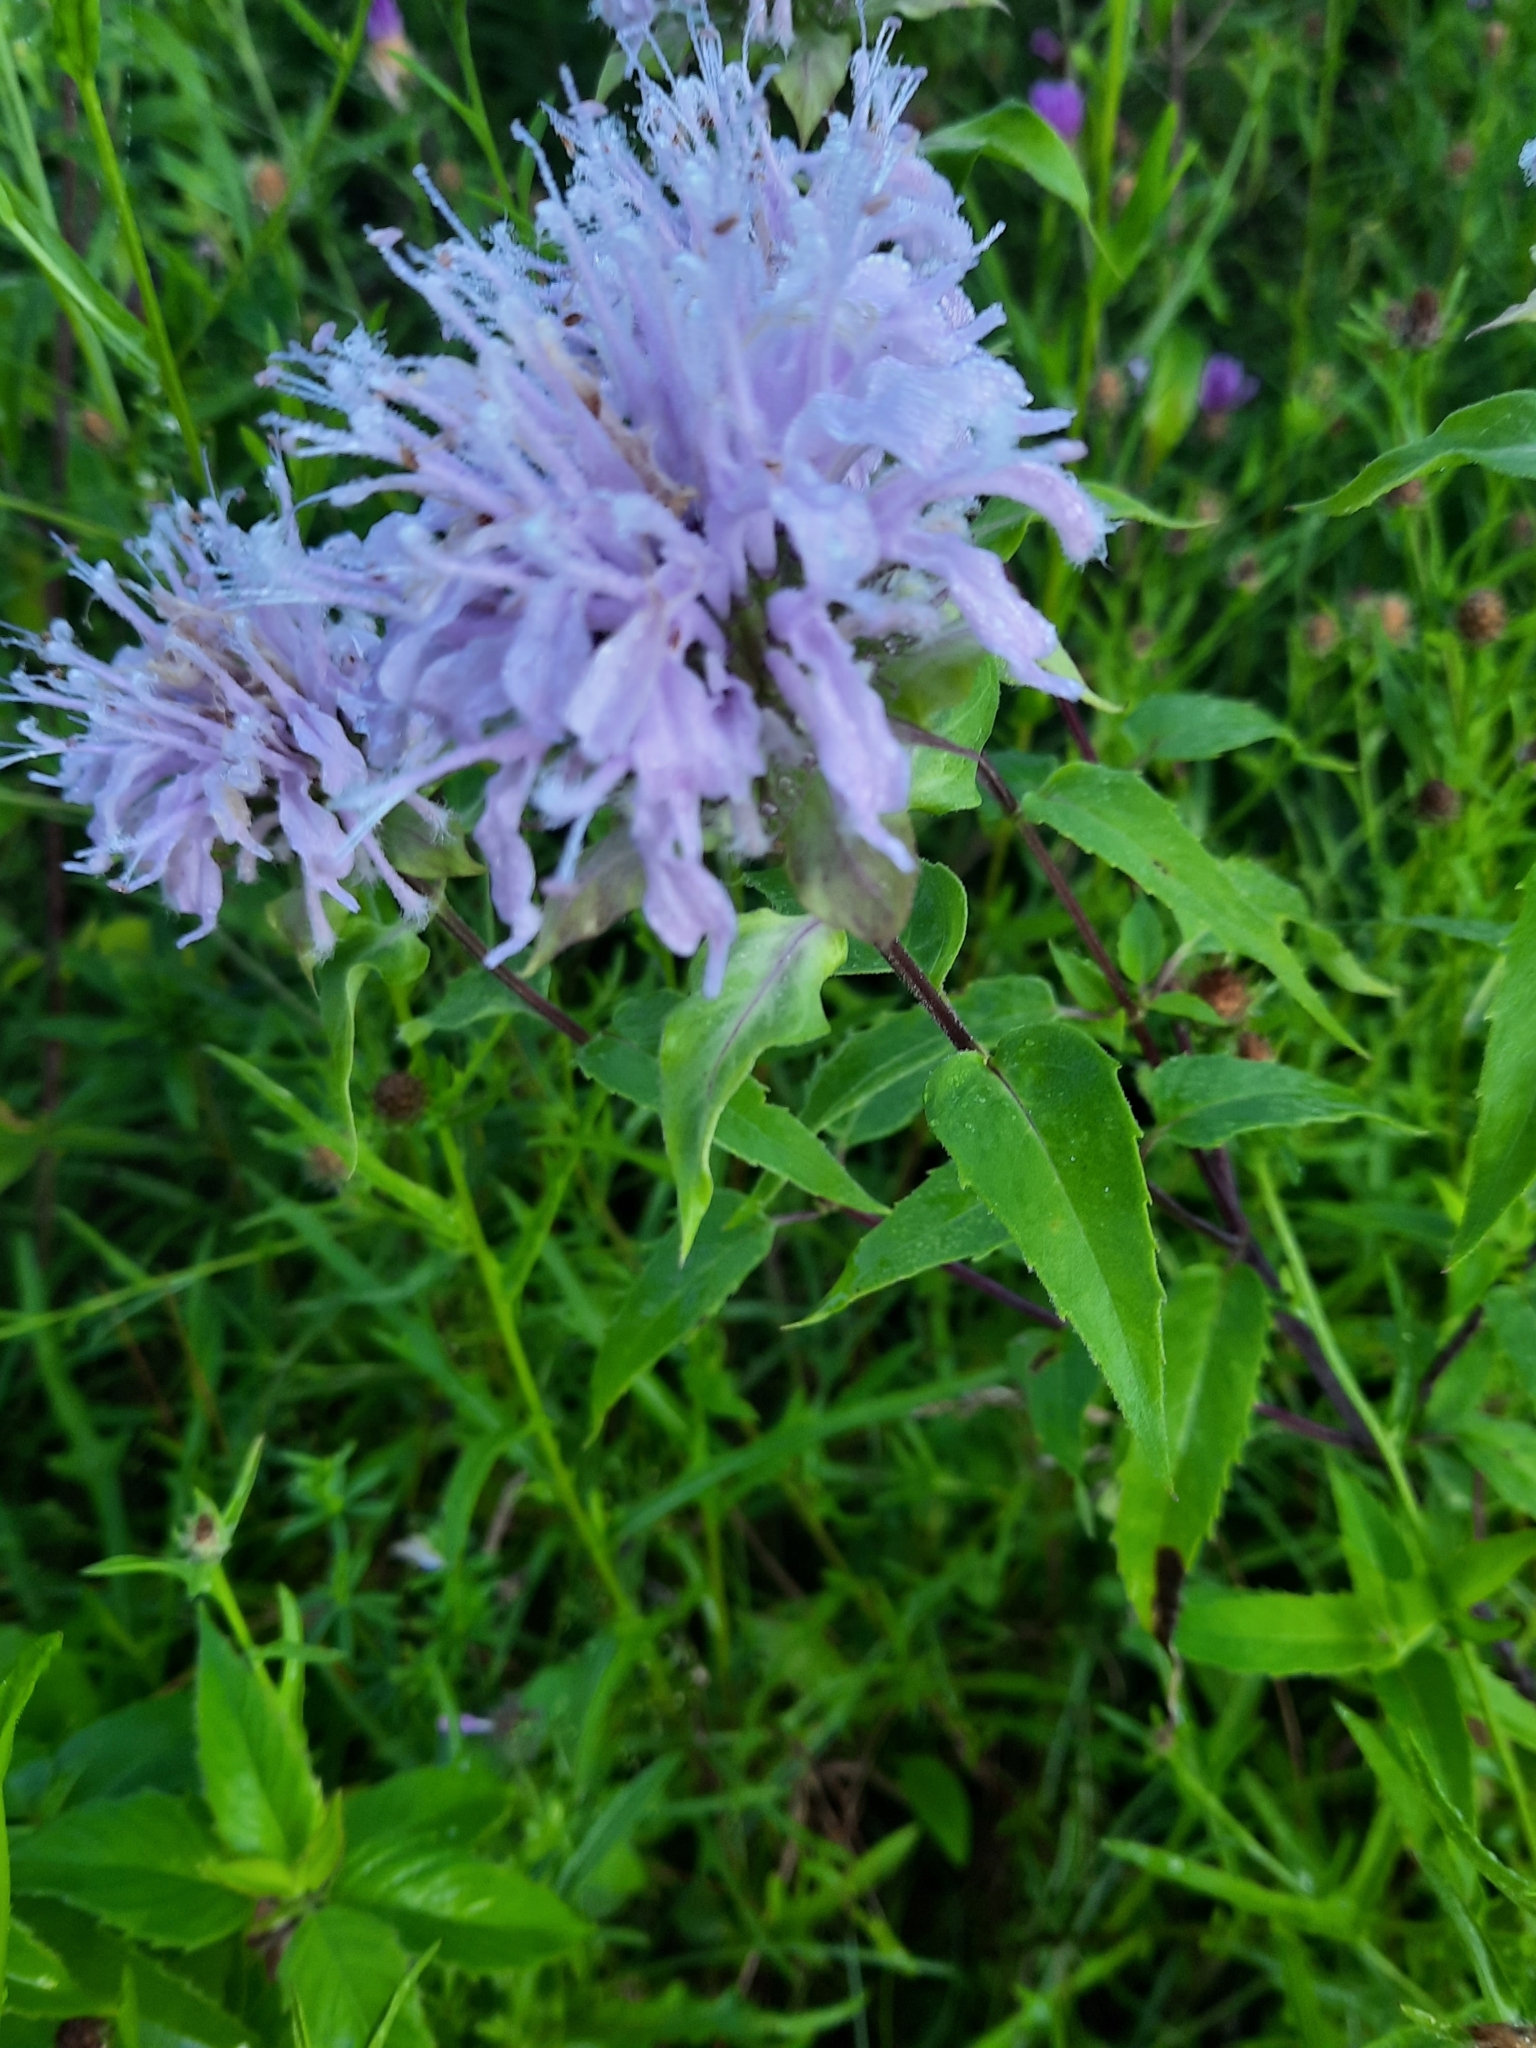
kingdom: Plantae
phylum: Tracheophyta
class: Magnoliopsida
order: Lamiales
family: Lamiaceae
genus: Monarda
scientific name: Monarda fistulosa
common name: Purple beebalm
